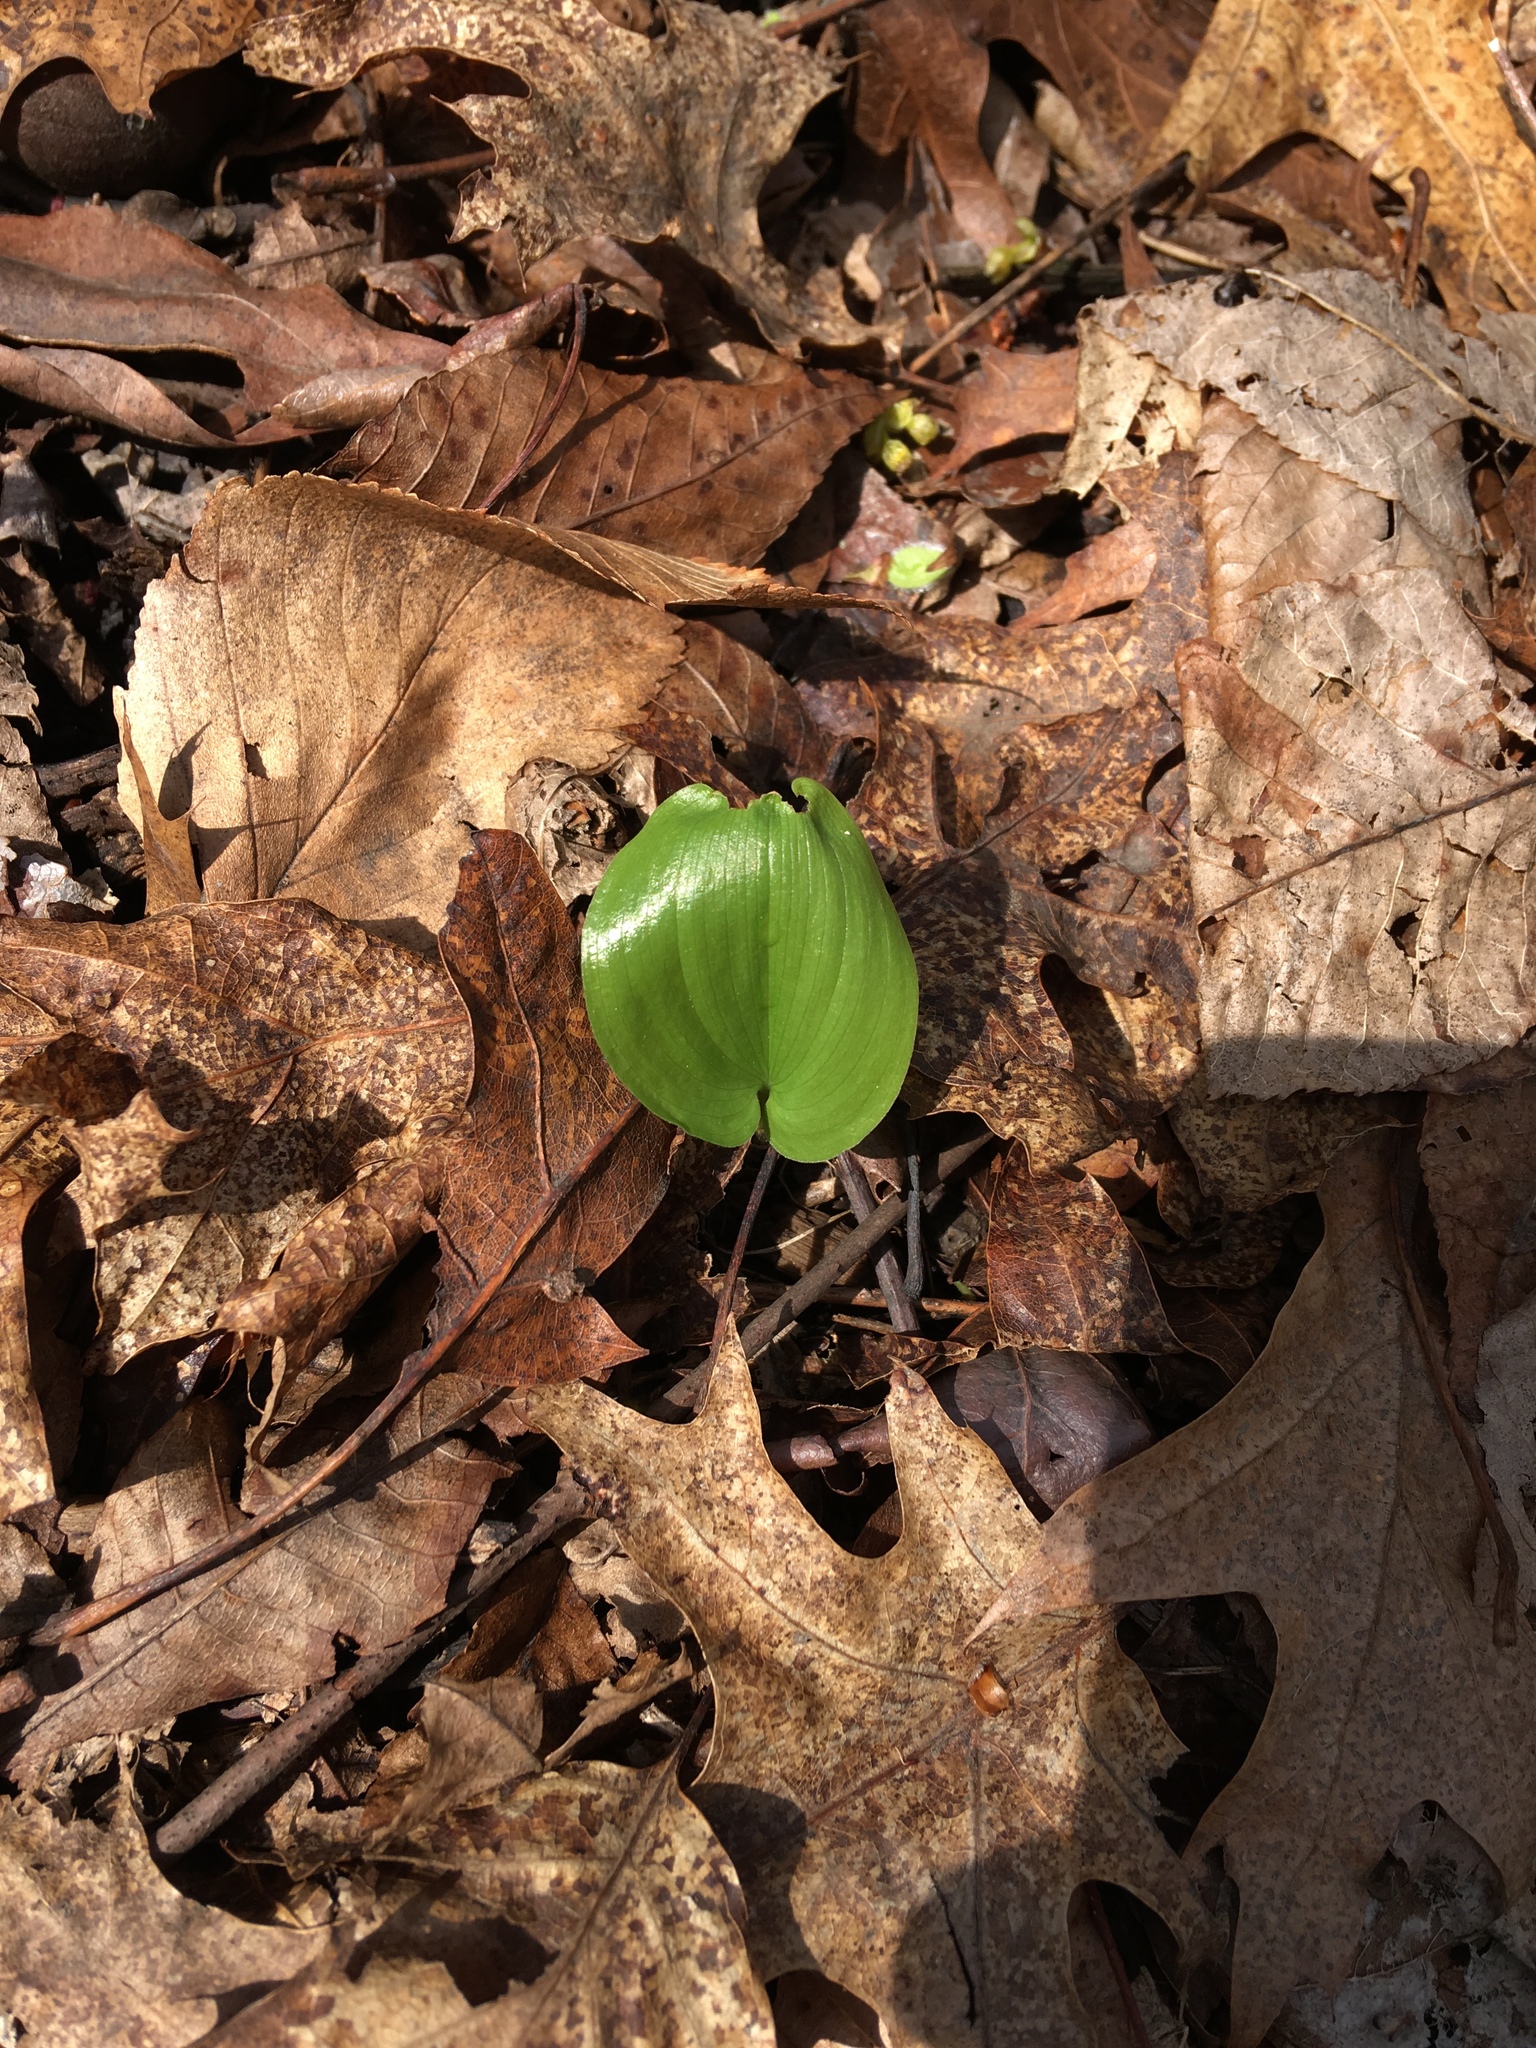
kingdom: Plantae
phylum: Tracheophyta
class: Liliopsida
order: Asparagales
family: Asparagaceae
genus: Maianthemum
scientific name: Maianthemum canadense
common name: False lily-of-the-valley
